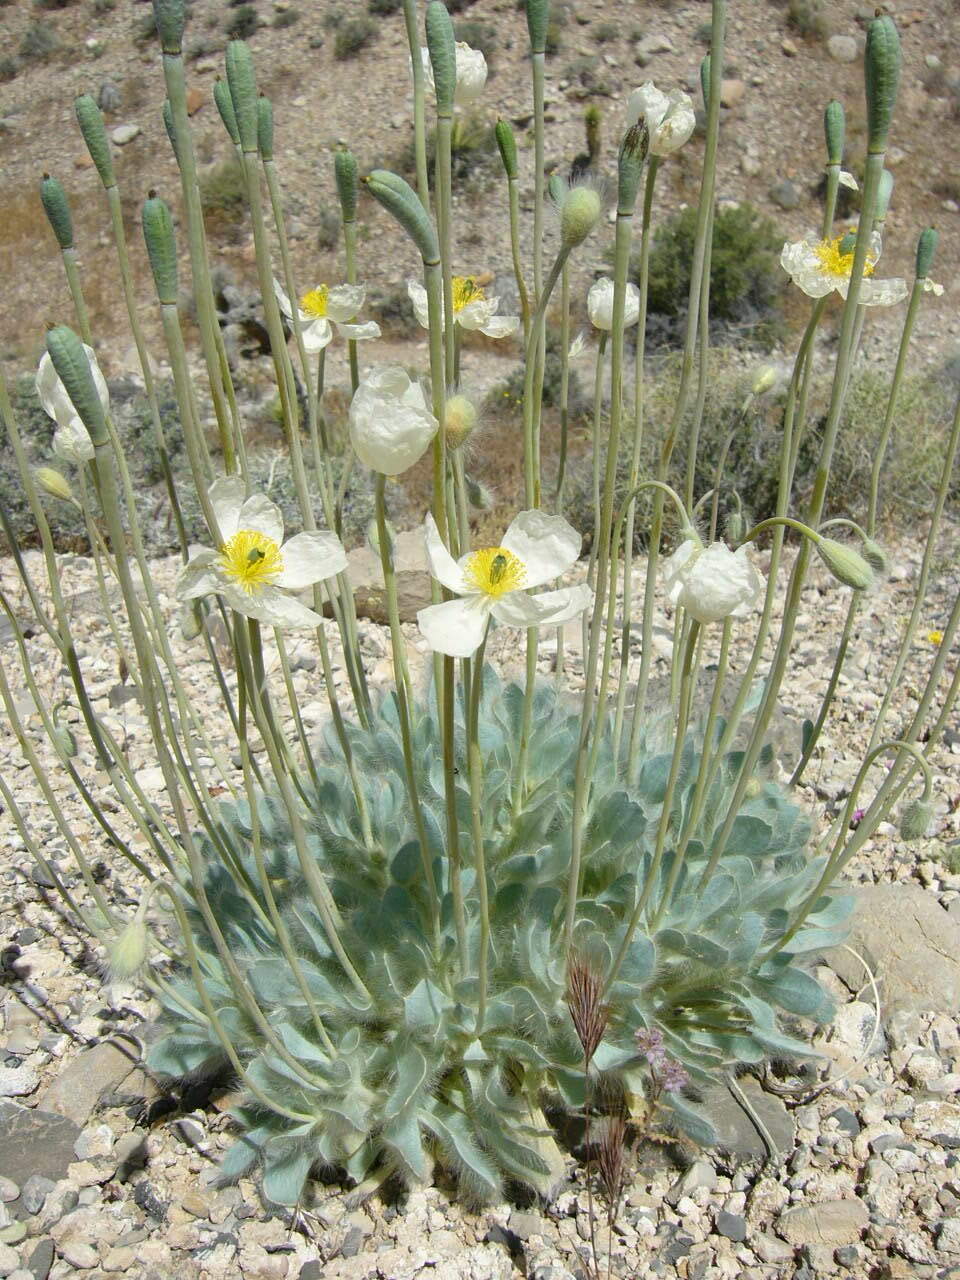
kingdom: Plantae
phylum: Tracheophyta
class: Magnoliopsida
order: Ranunculales
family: Papaveraceae
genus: Arctomecon
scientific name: Arctomecon merriamii
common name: White bear-poppy
